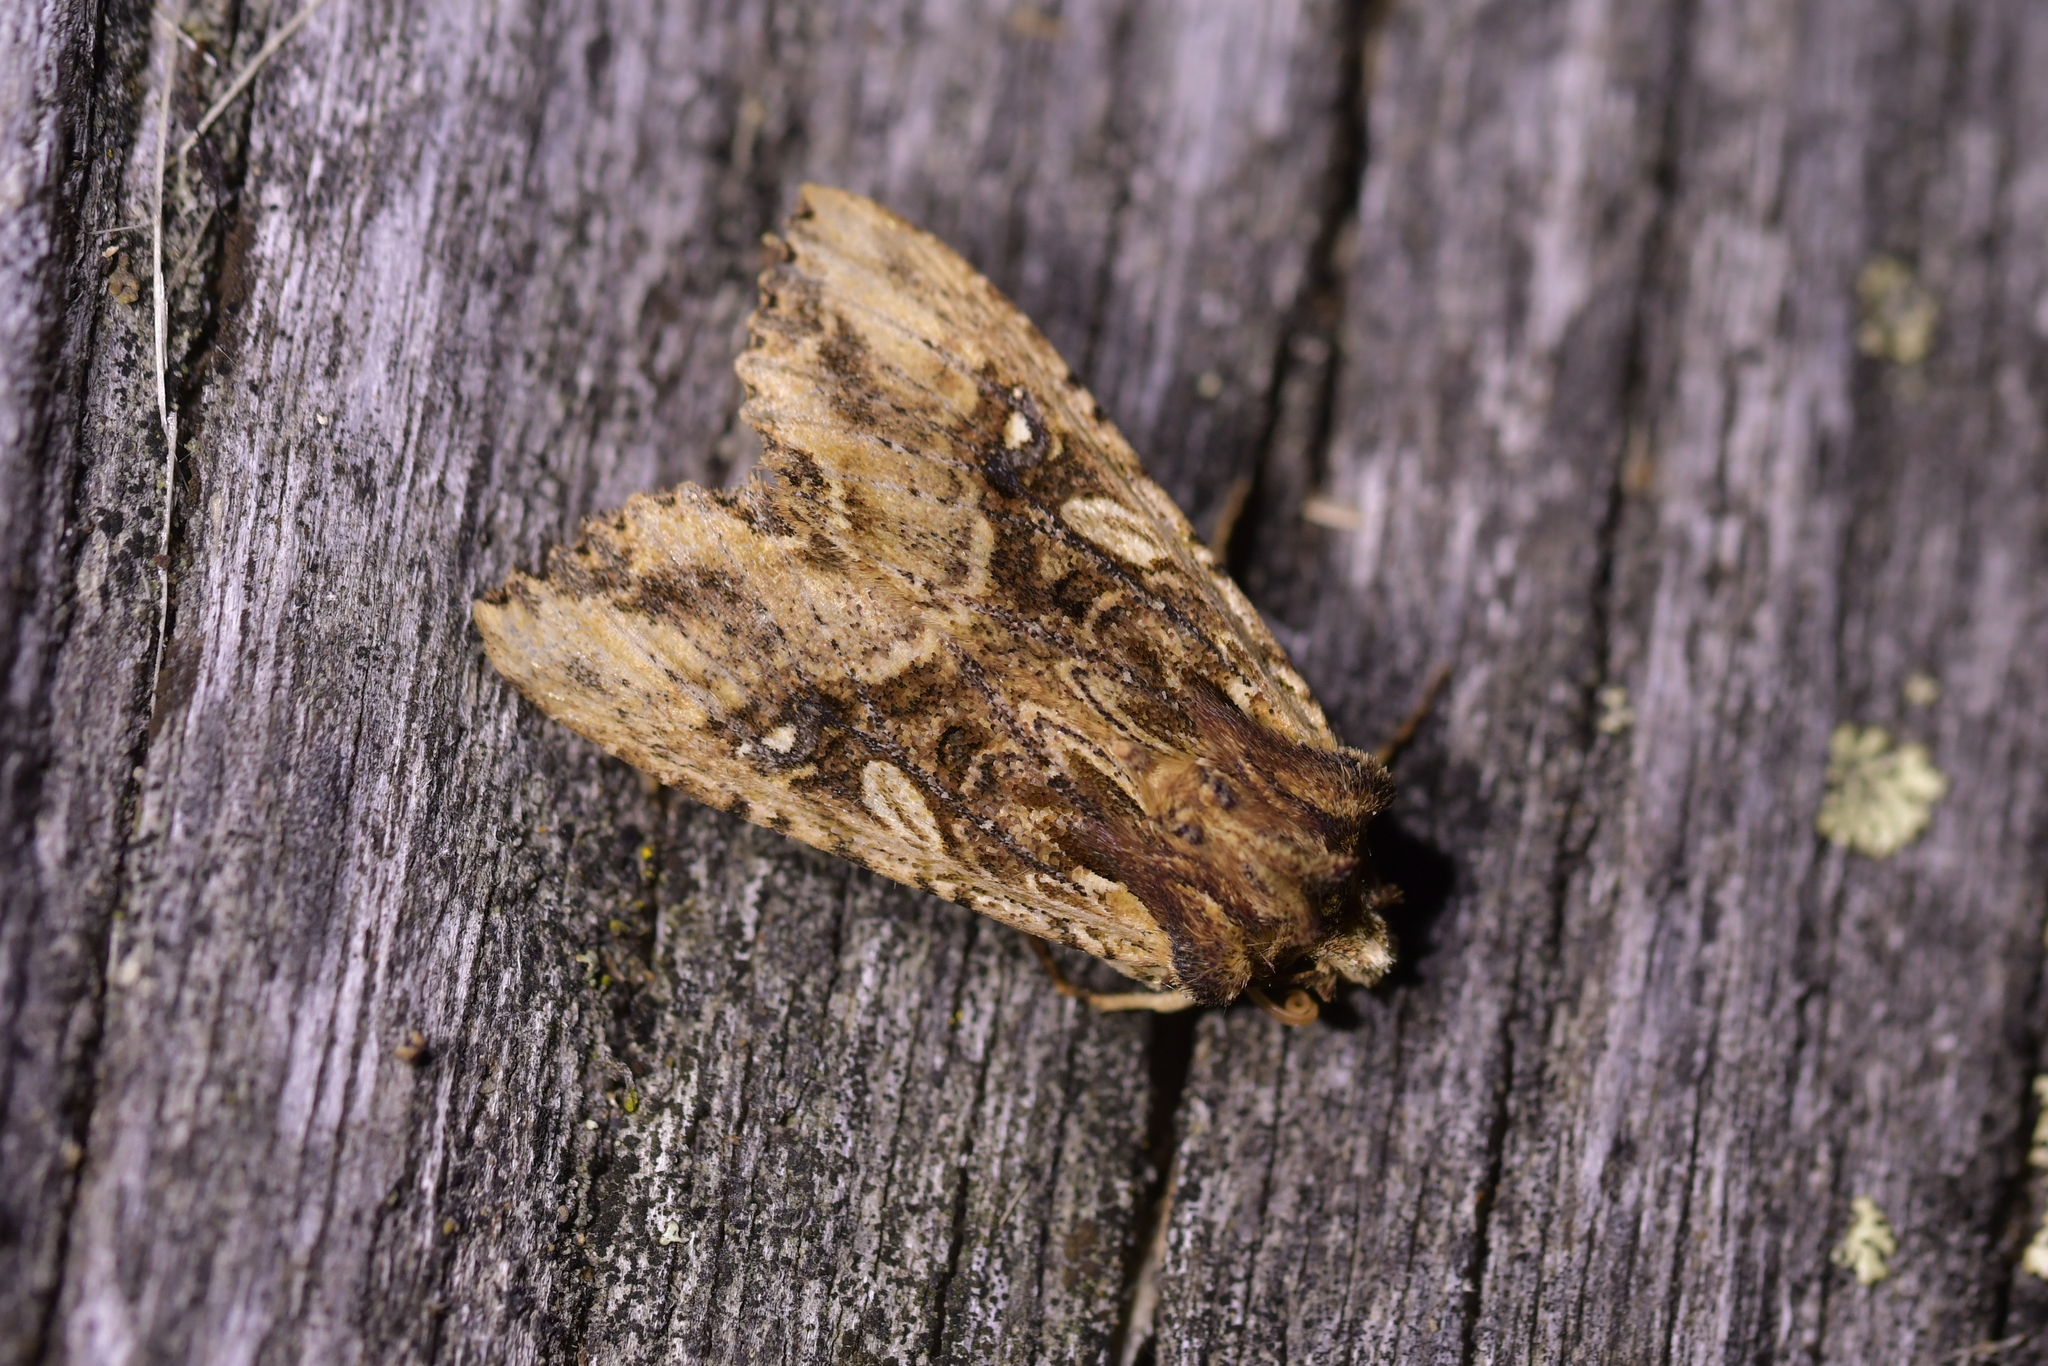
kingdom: Animalia
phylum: Arthropoda
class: Insecta
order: Lepidoptera
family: Noctuidae
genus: Meterana
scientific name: Meterana stipata
